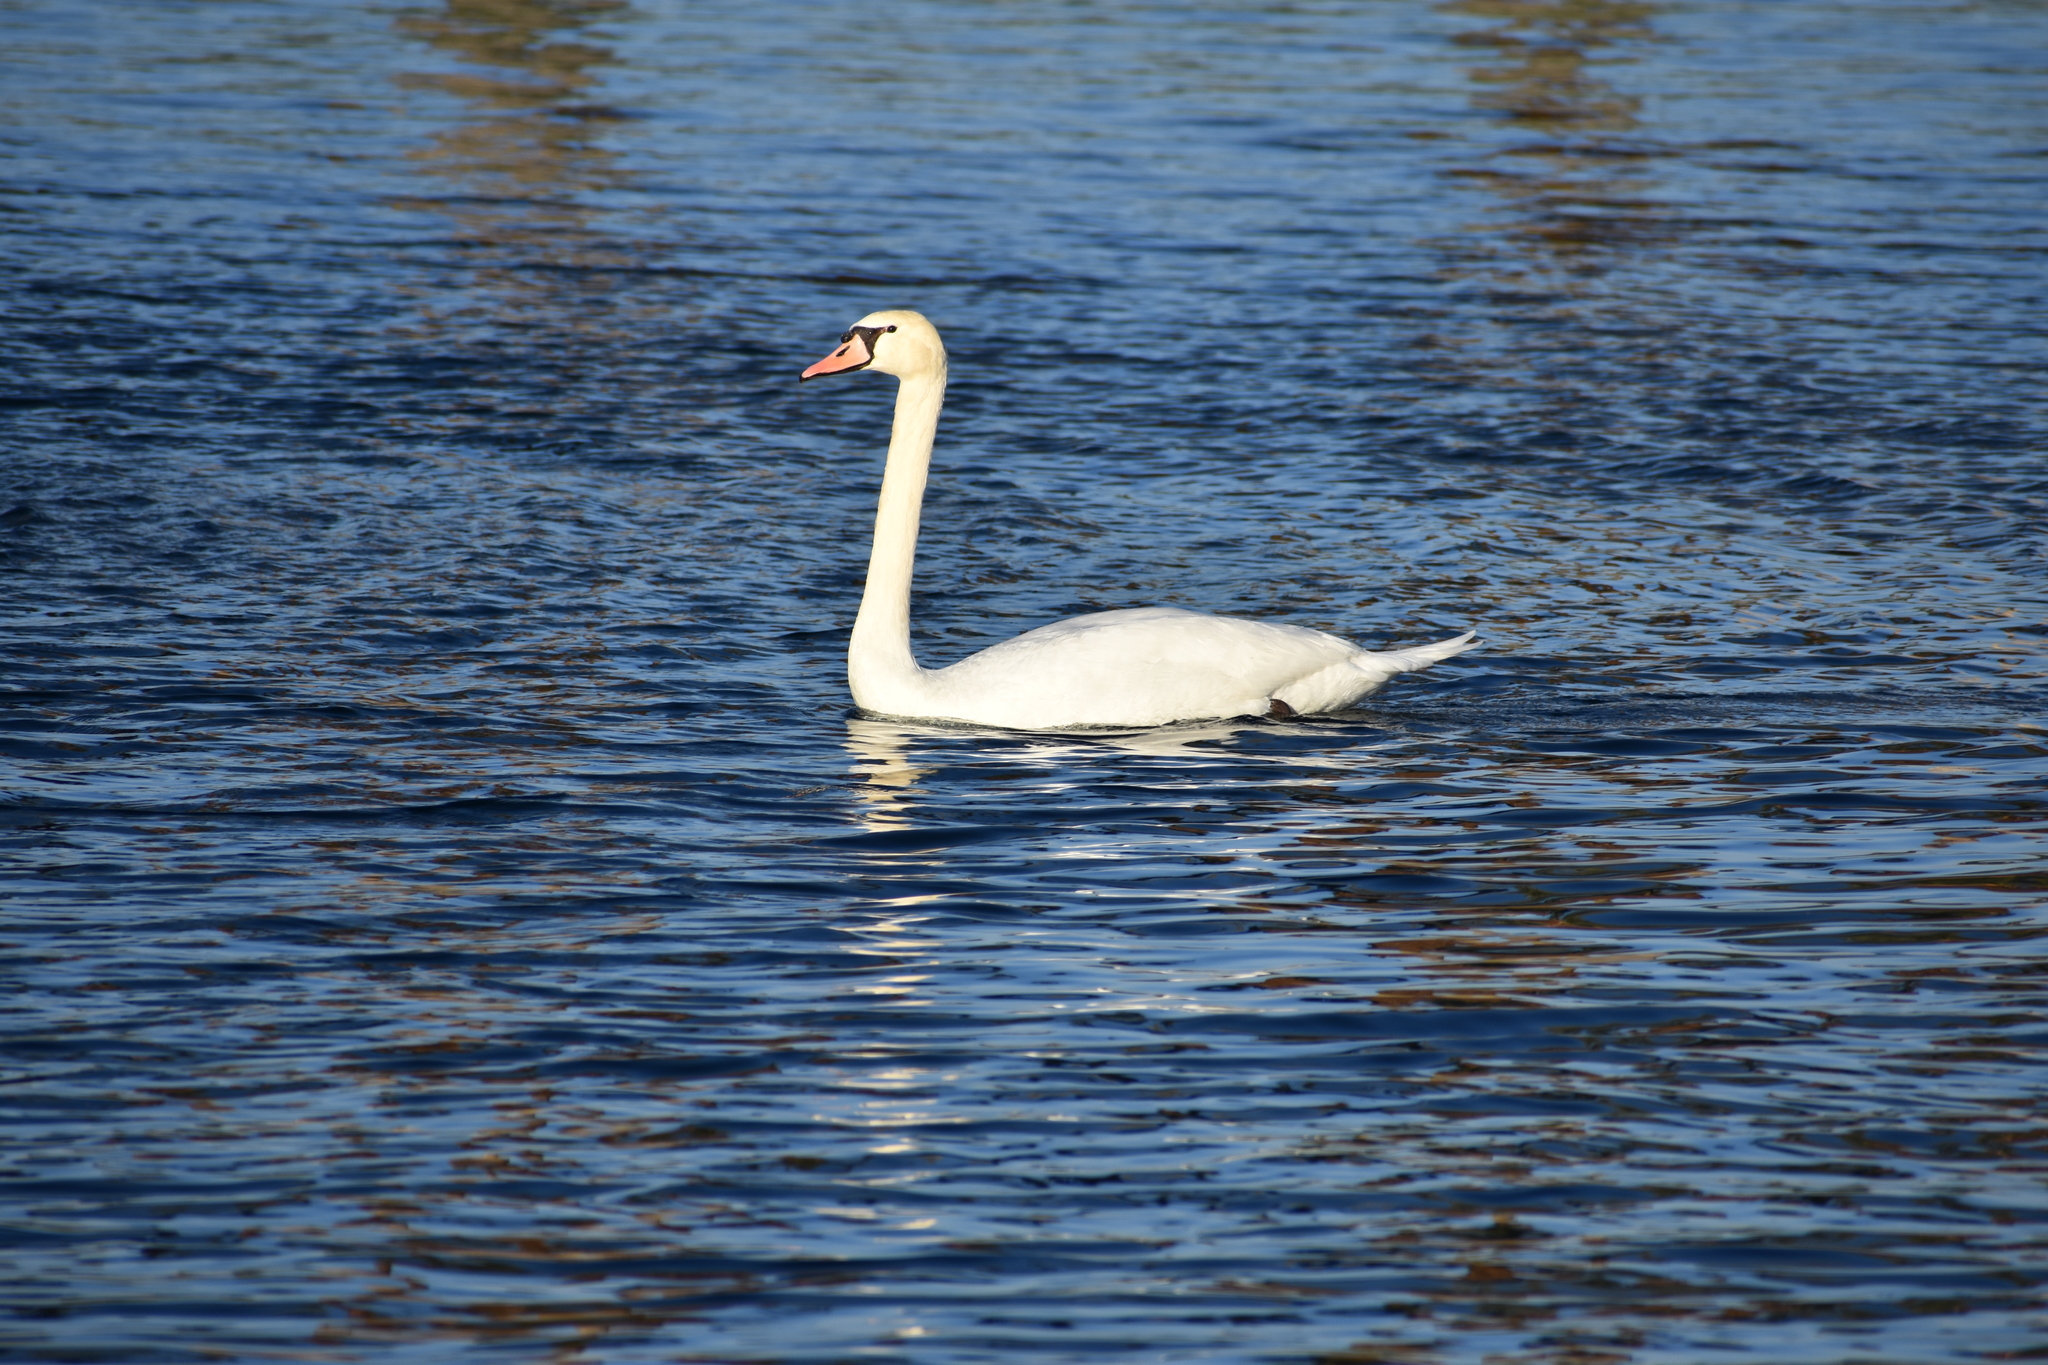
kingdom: Animalia
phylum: Chordata
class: Aves
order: Anseriformes
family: Anatidae
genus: Cygnus
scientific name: Cygnus olor
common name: Mute swan
